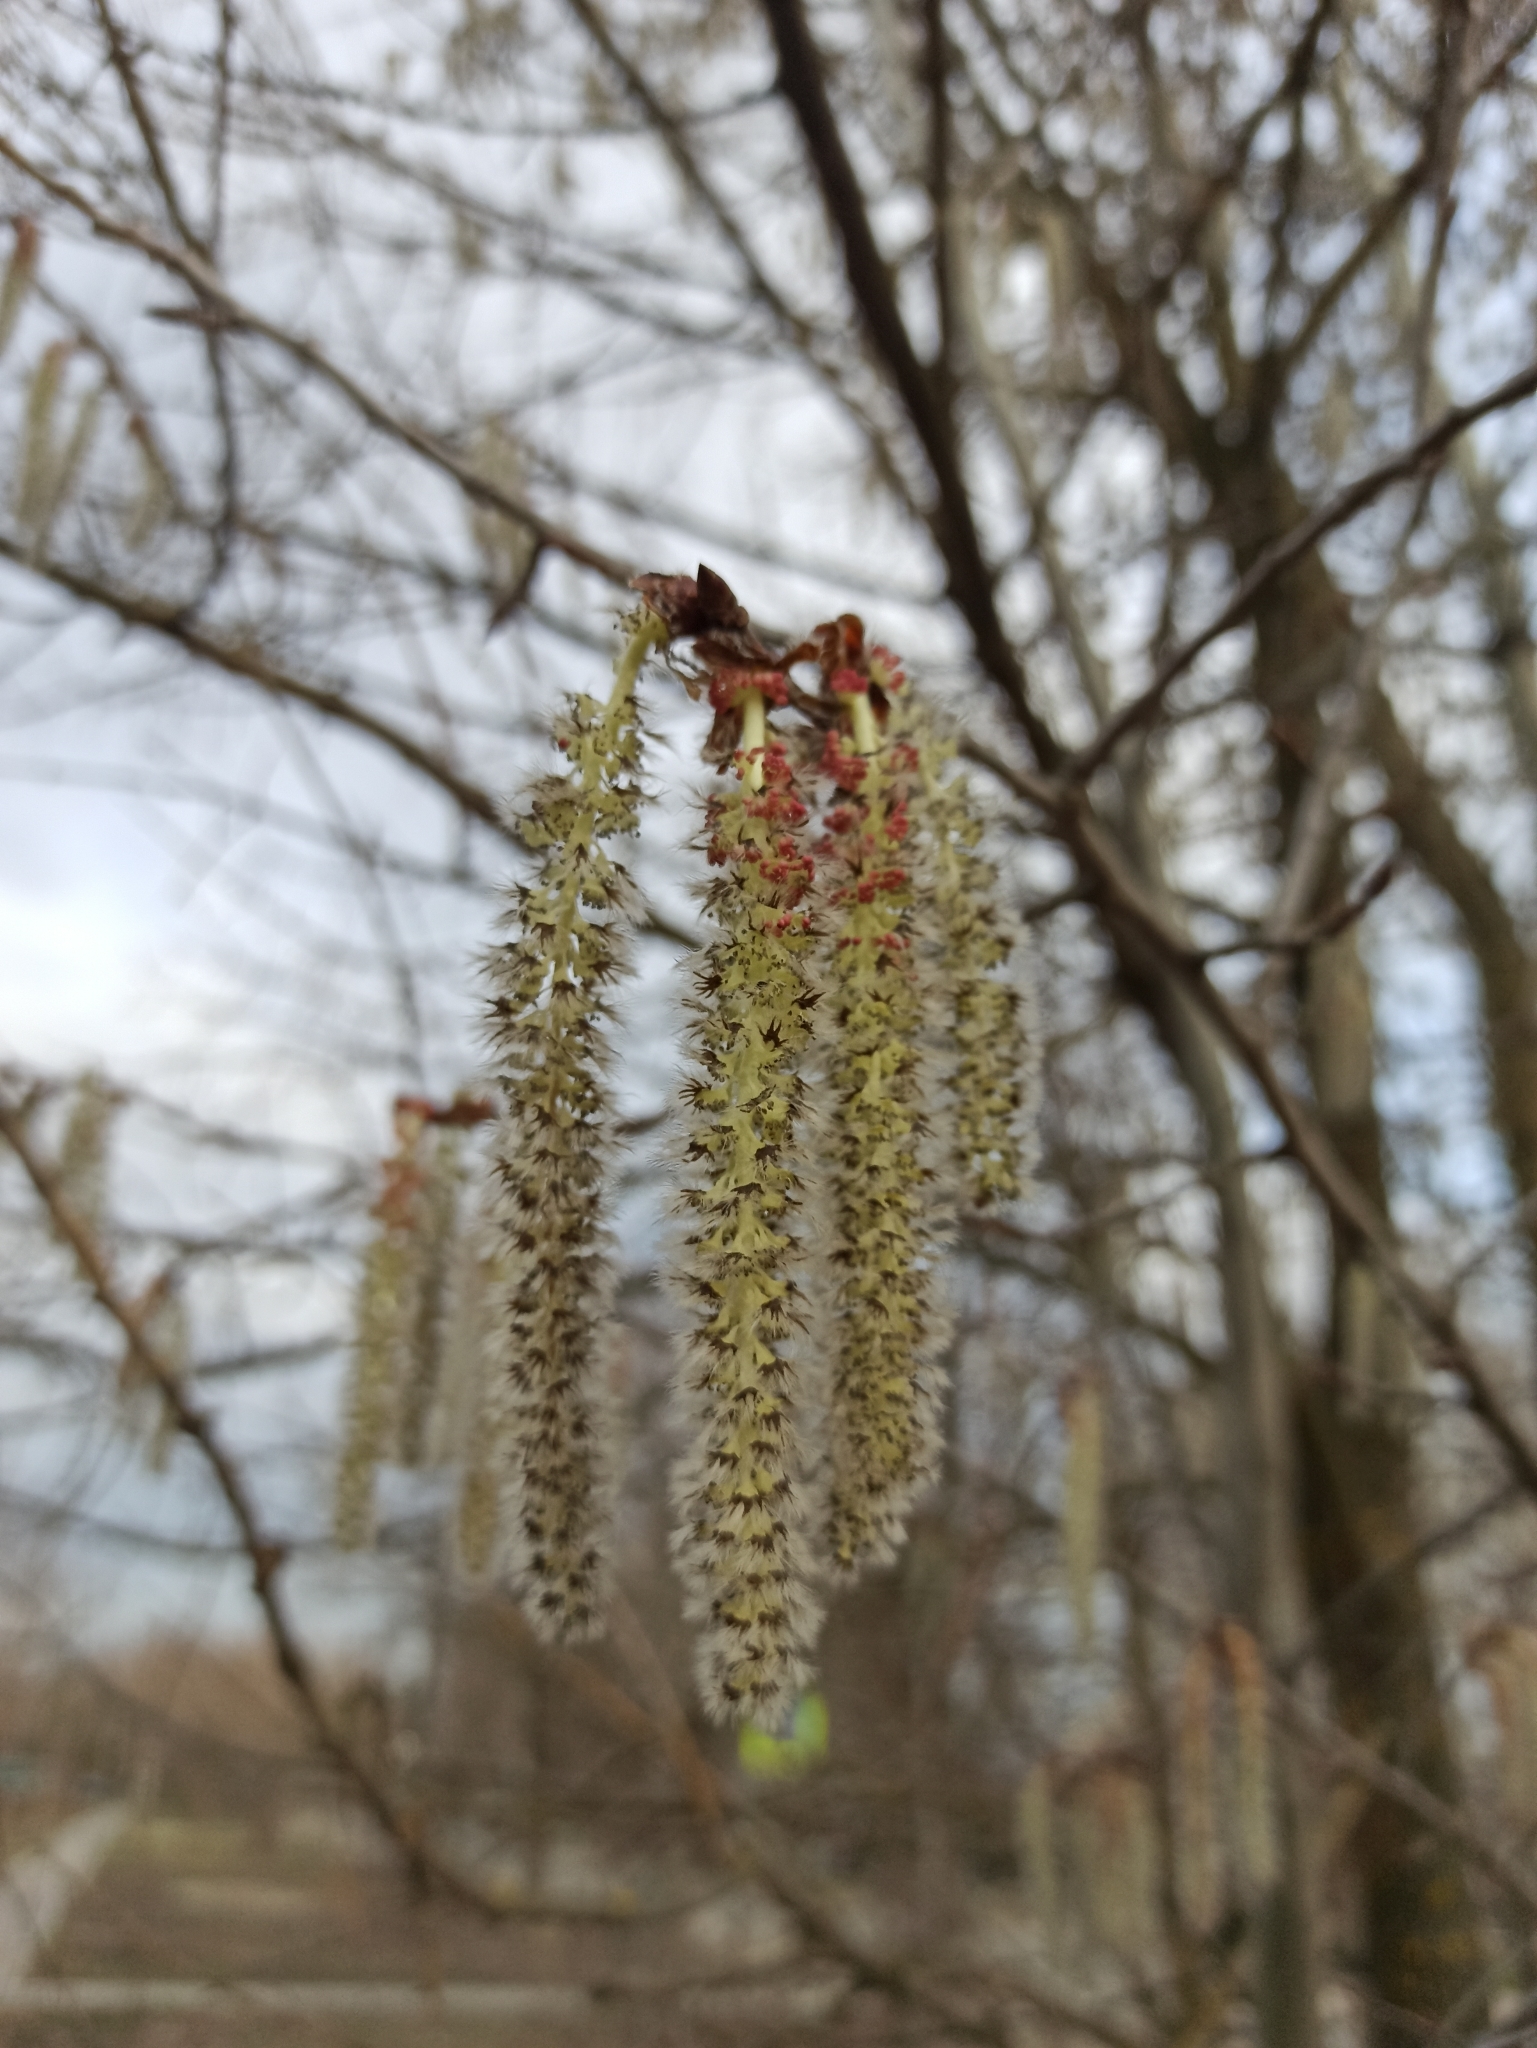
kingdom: Plantae
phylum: Tracheophyta
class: Magnoliopsida
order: Malpighiales
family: Salicaceae
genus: Populus
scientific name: Populus tremula
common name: European aspen
